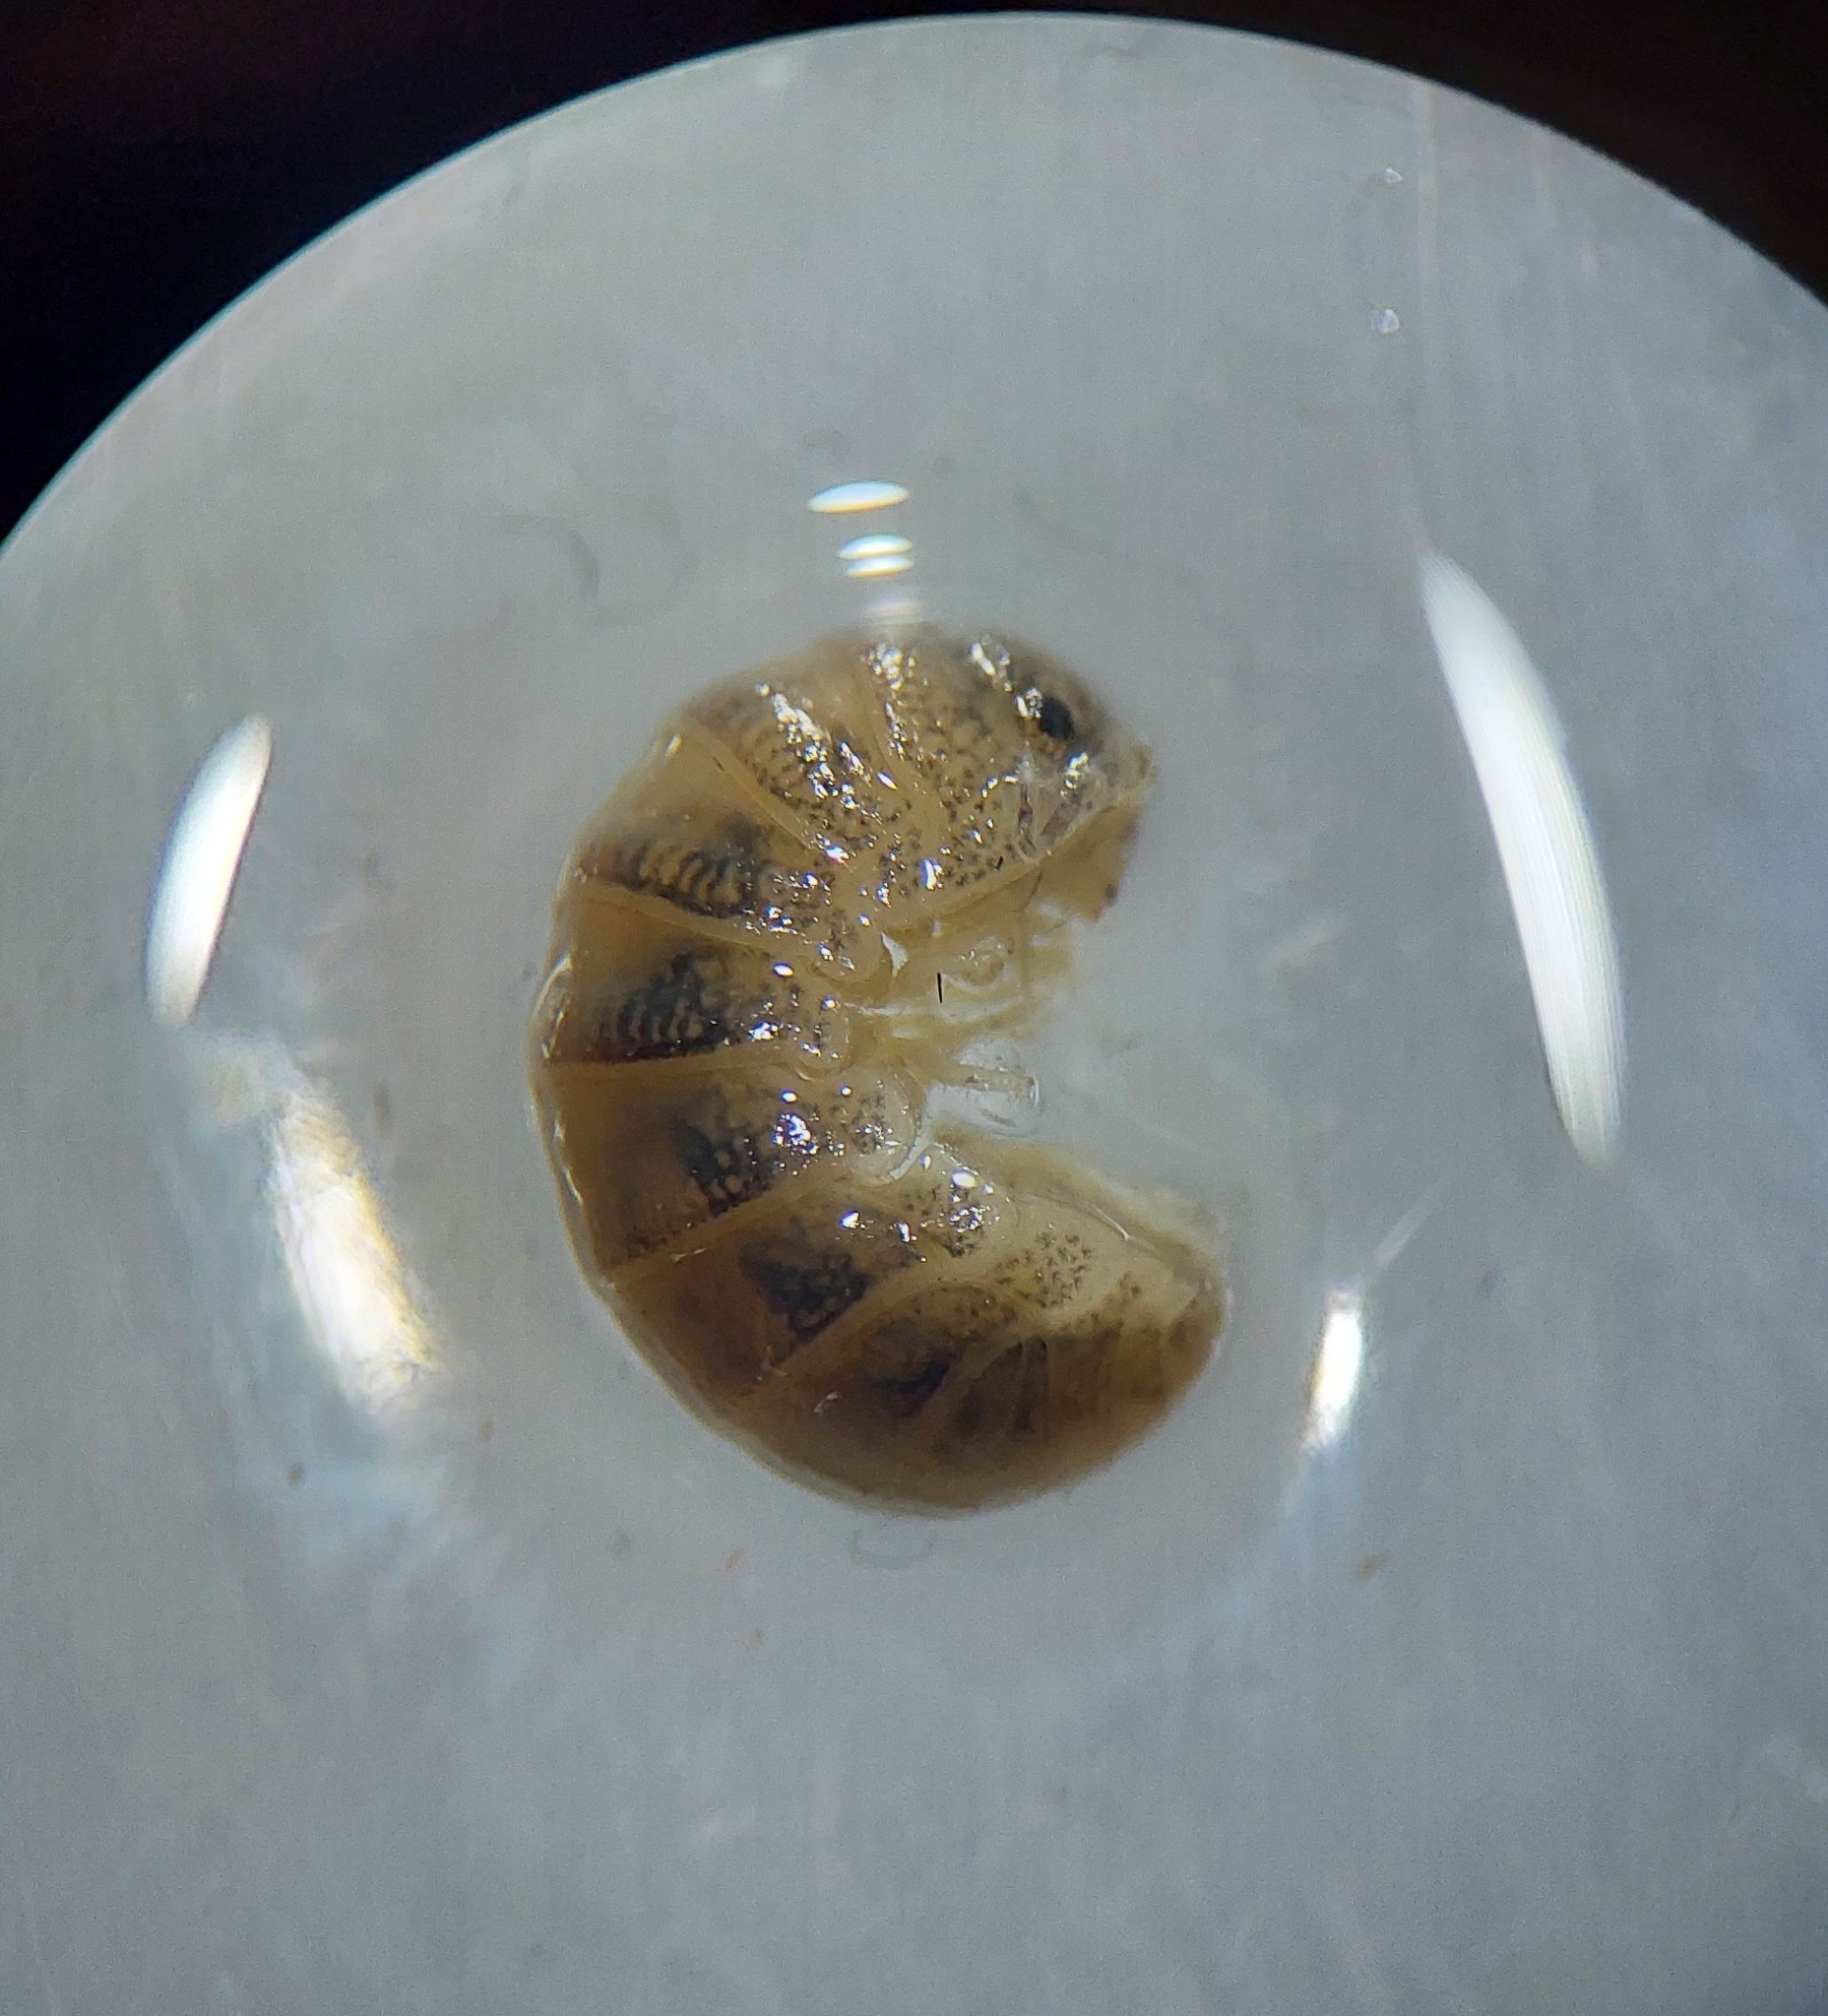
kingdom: Animalia
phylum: Arthropoda
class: Malacostraca
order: Isopoda
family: Tylidae
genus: Tylos
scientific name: Tylos ponticus
